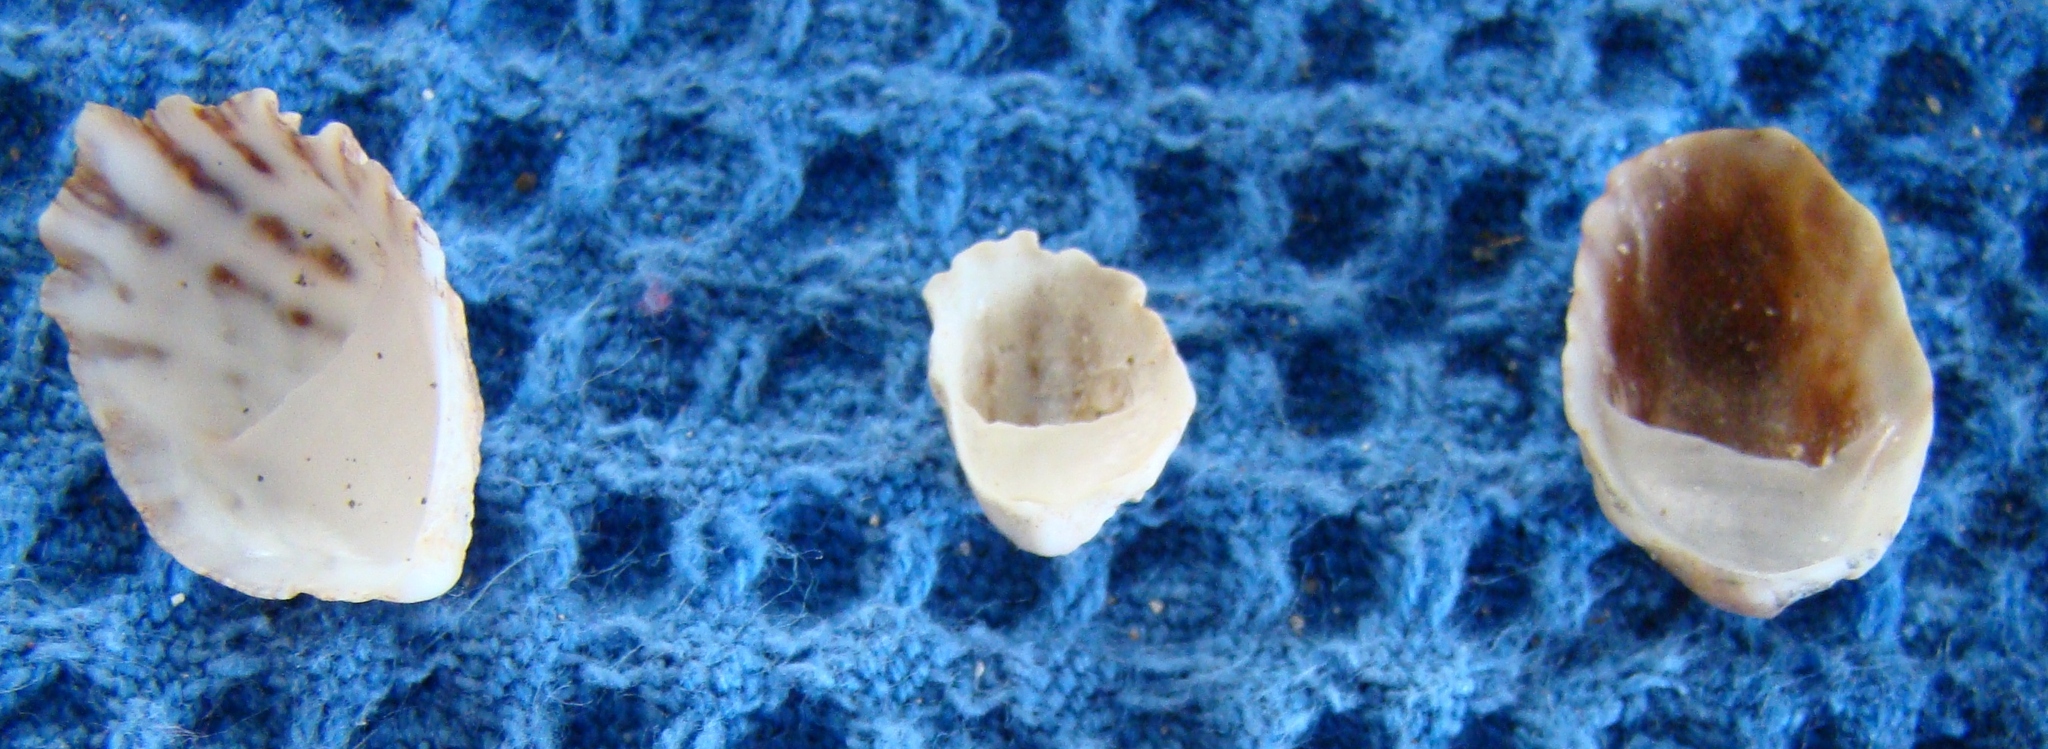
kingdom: Animalia
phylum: Mollusca
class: Gastropoda
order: Littorinimorpha
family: Calyptraeidae
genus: Maoricrypta
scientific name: Maoricrypta costata
